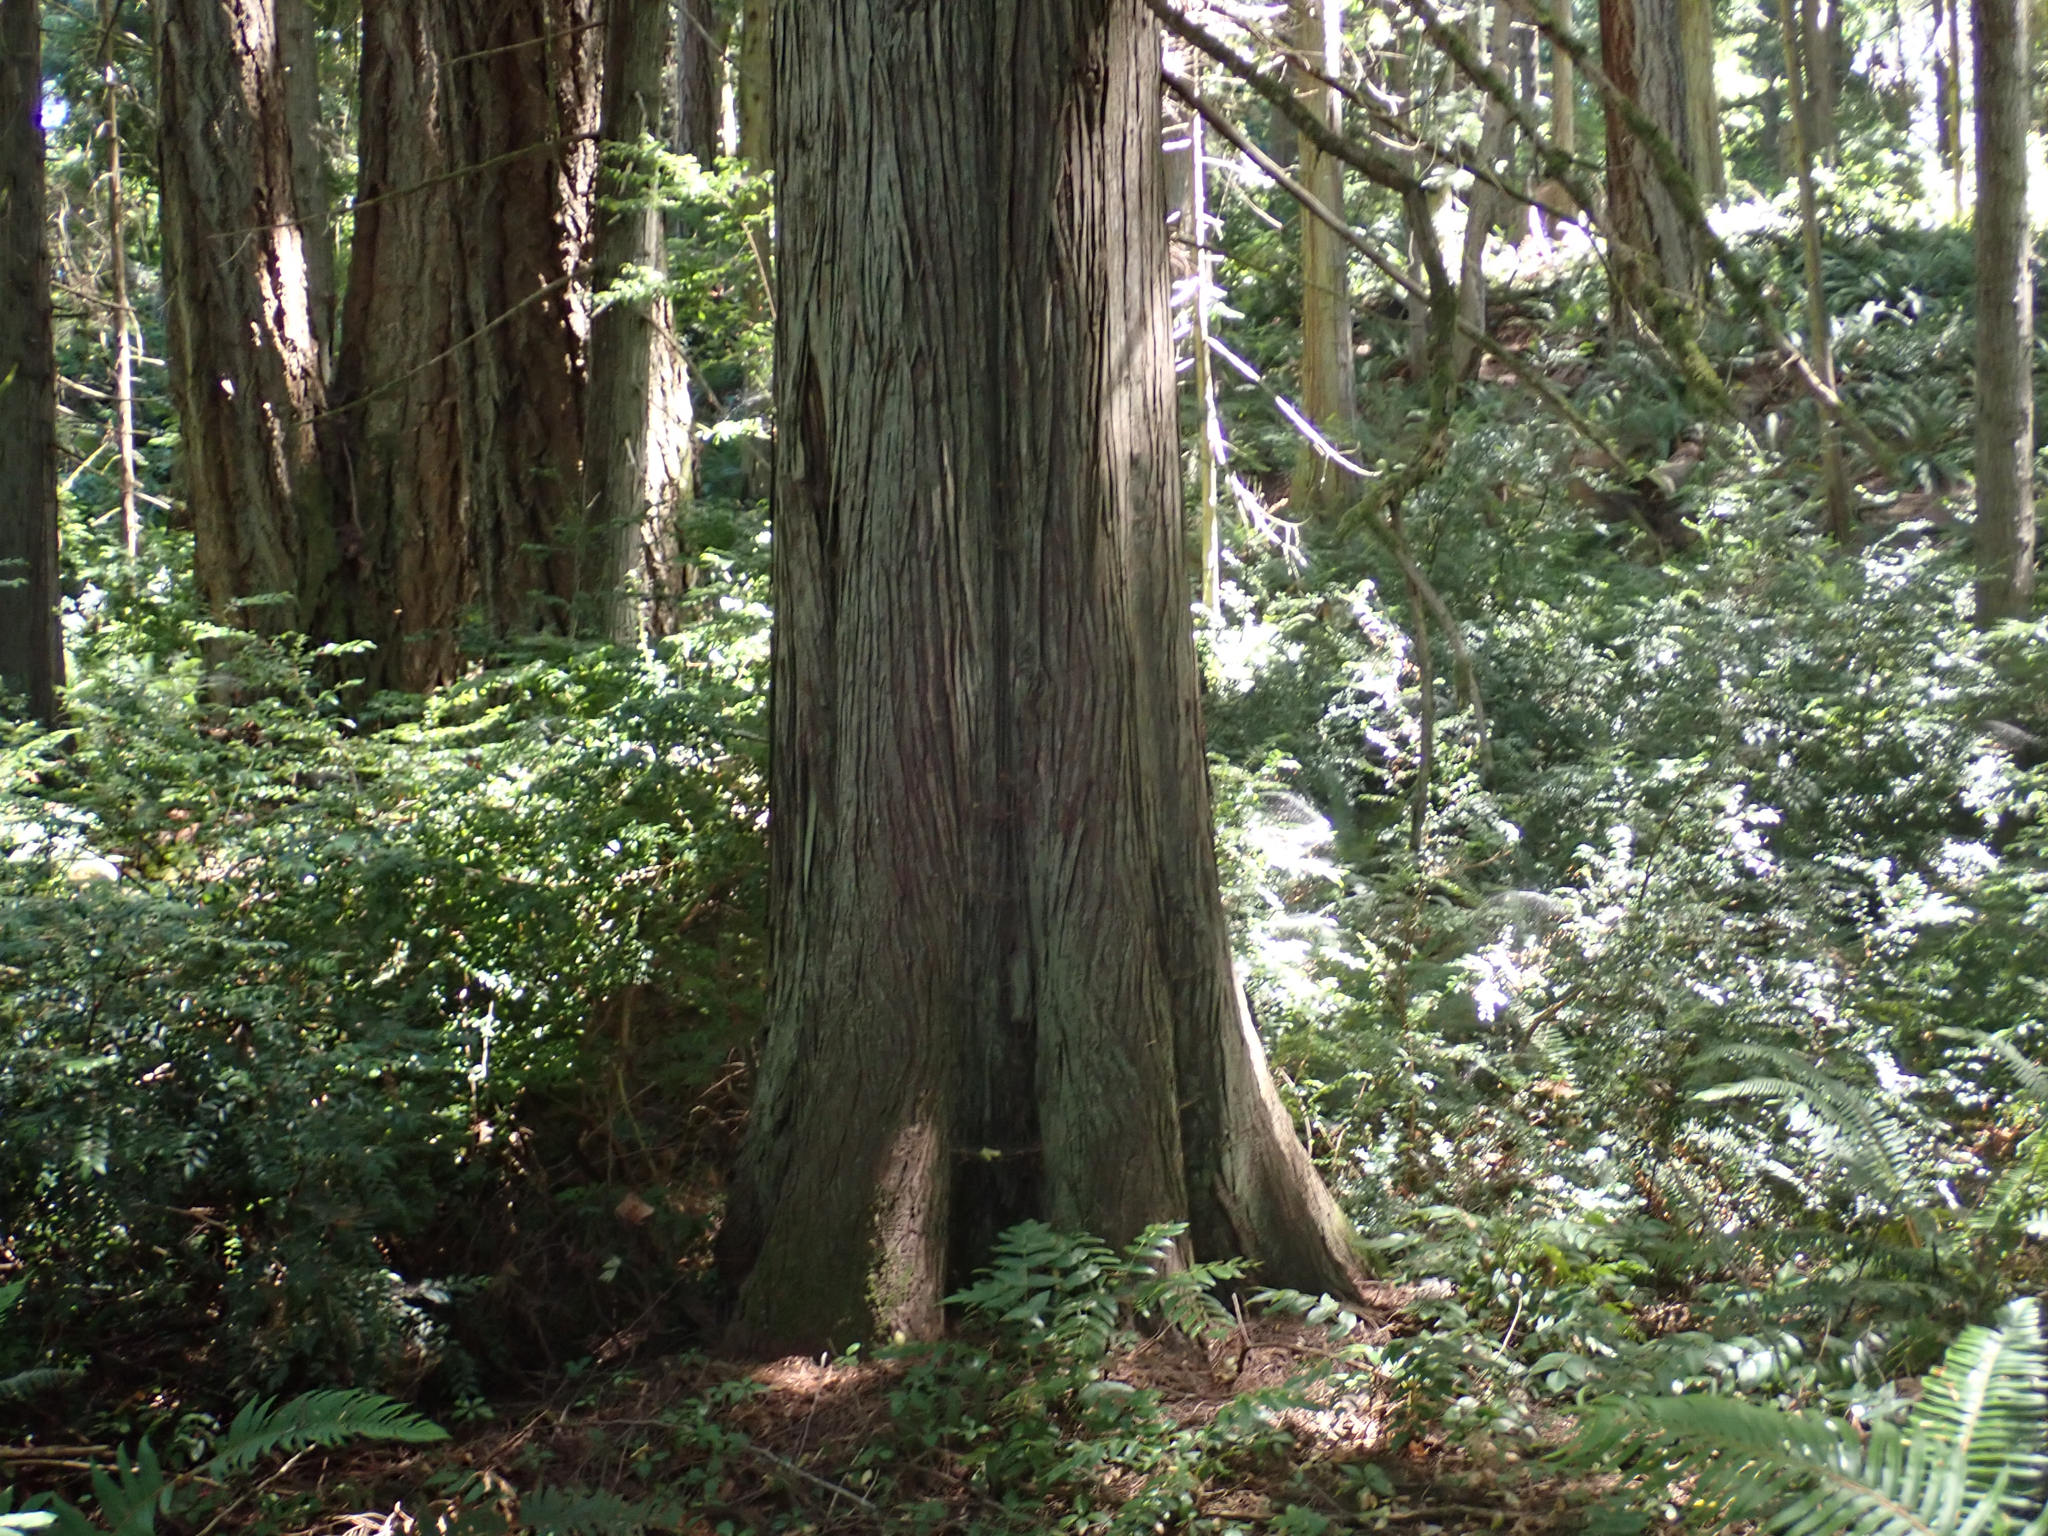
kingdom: Plantae
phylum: Tracheophyta
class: Pinopsida
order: Pinales
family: Cupressaceae
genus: Thuja
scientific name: Thuja plicata
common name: Western red-cedar
